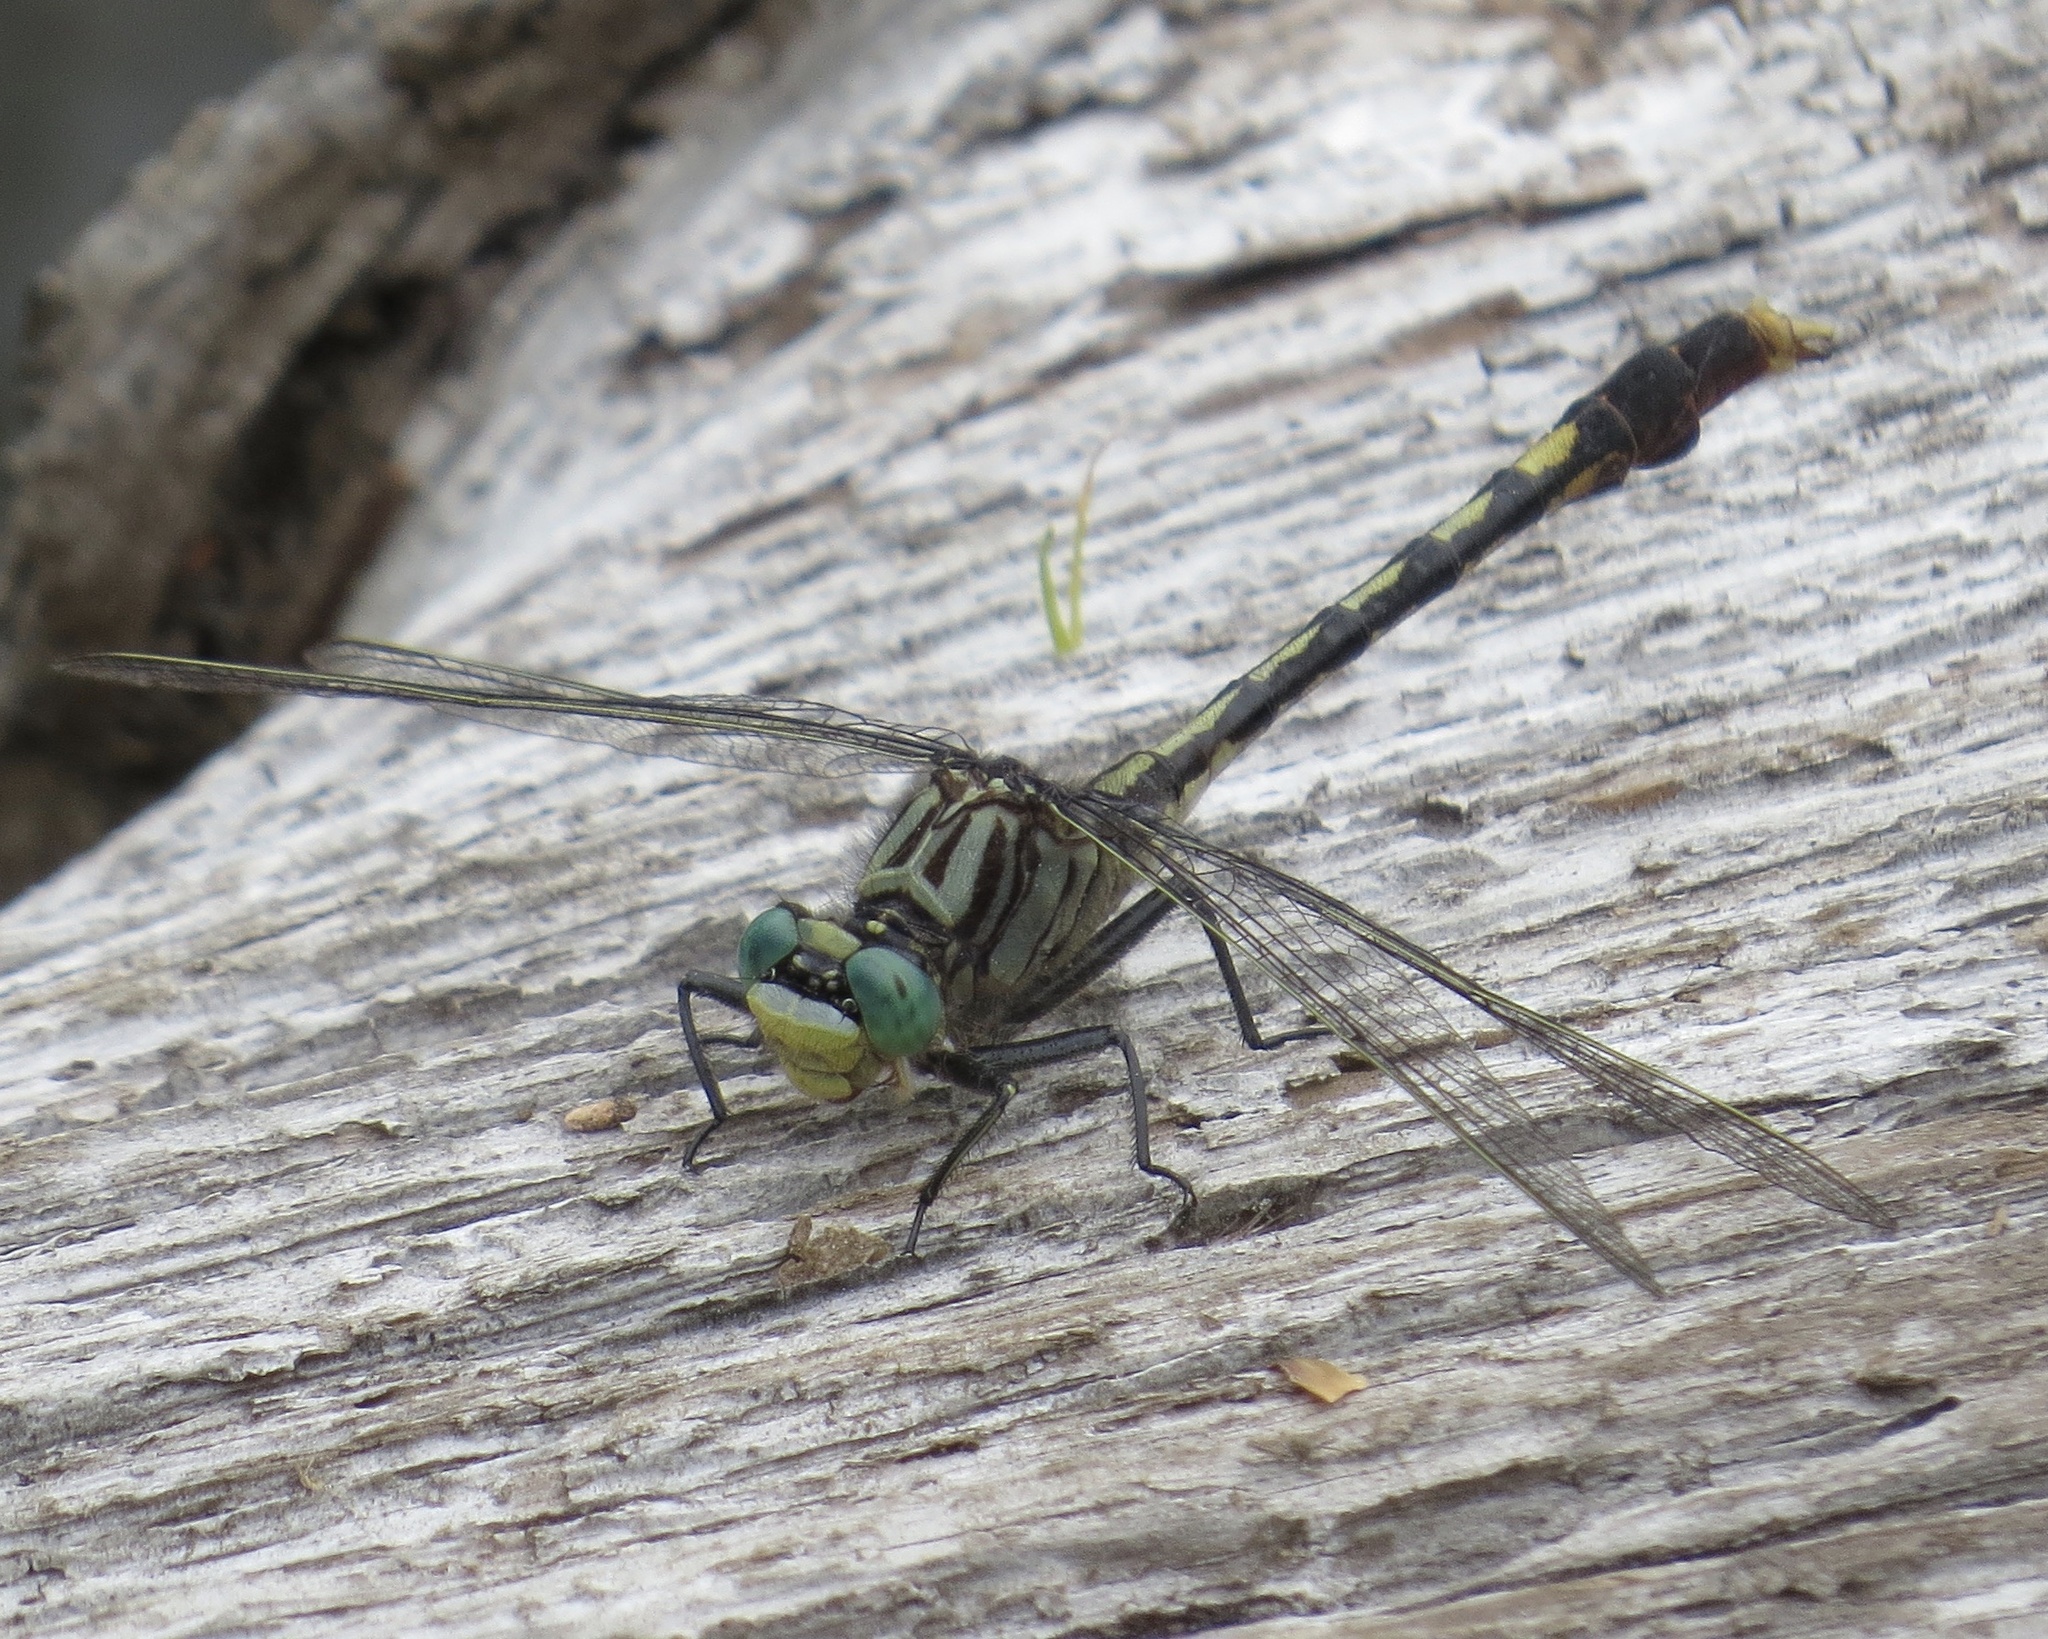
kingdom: Animalia
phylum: Arthropoda
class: Insecta
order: Odonata
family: Gomphidae
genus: Arigomphus
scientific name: Arigomphus villosipes
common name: Unicorn clubtail
